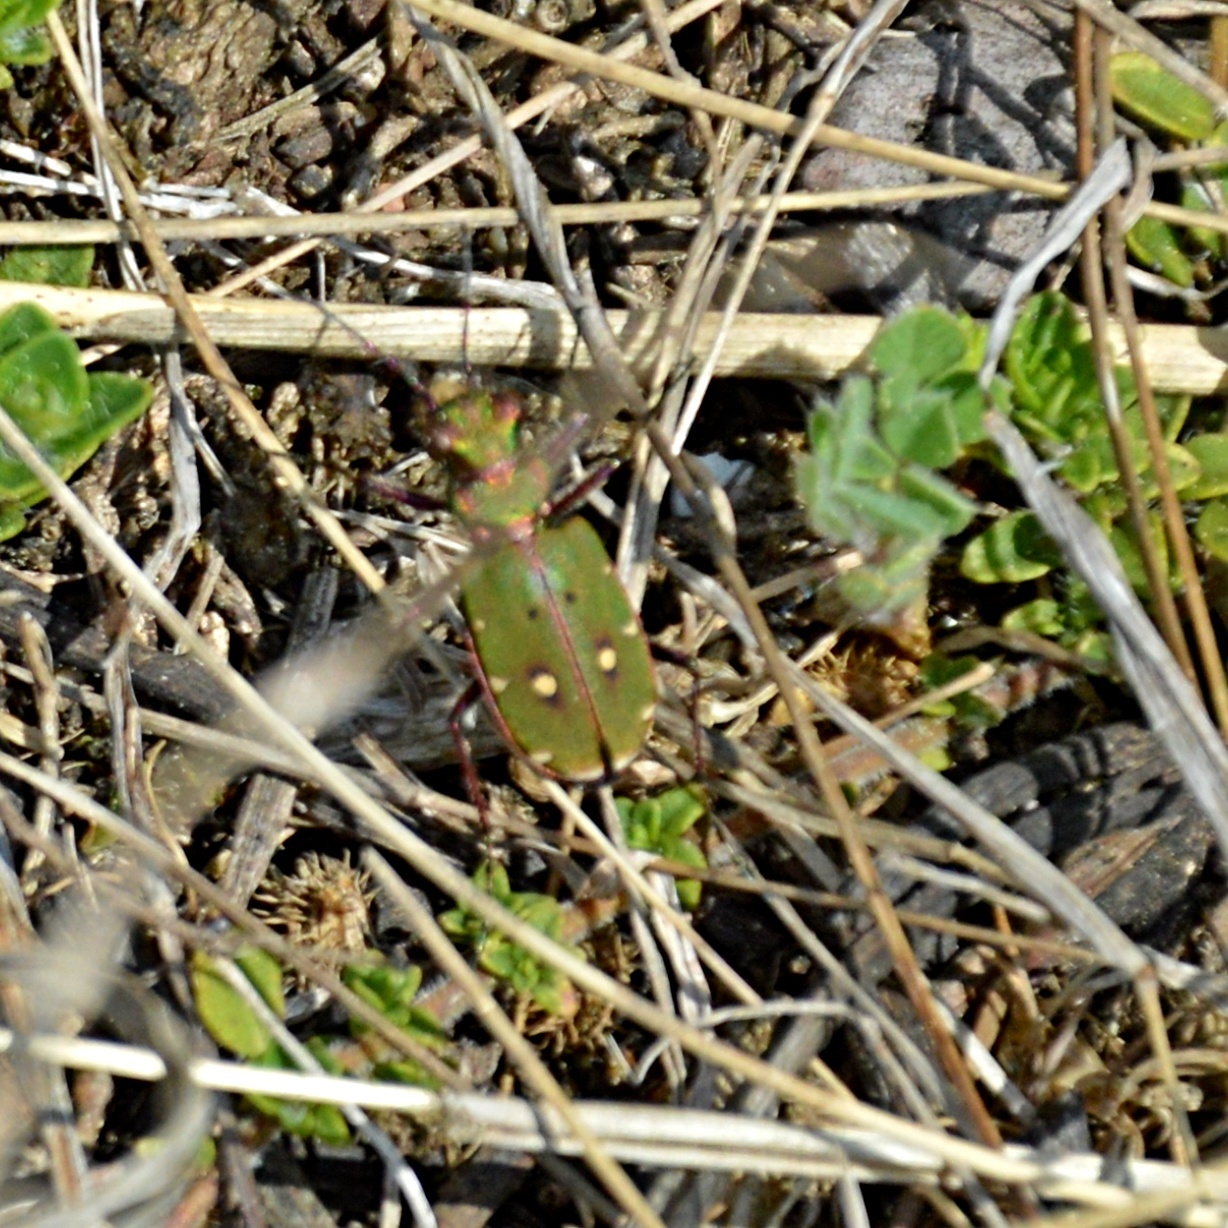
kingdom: Animalia
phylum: Arthropoda
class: Insecta
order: Coleoptera
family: Carabidae
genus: Cicindela
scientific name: Cicindela campestris
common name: Common tiger beetle
